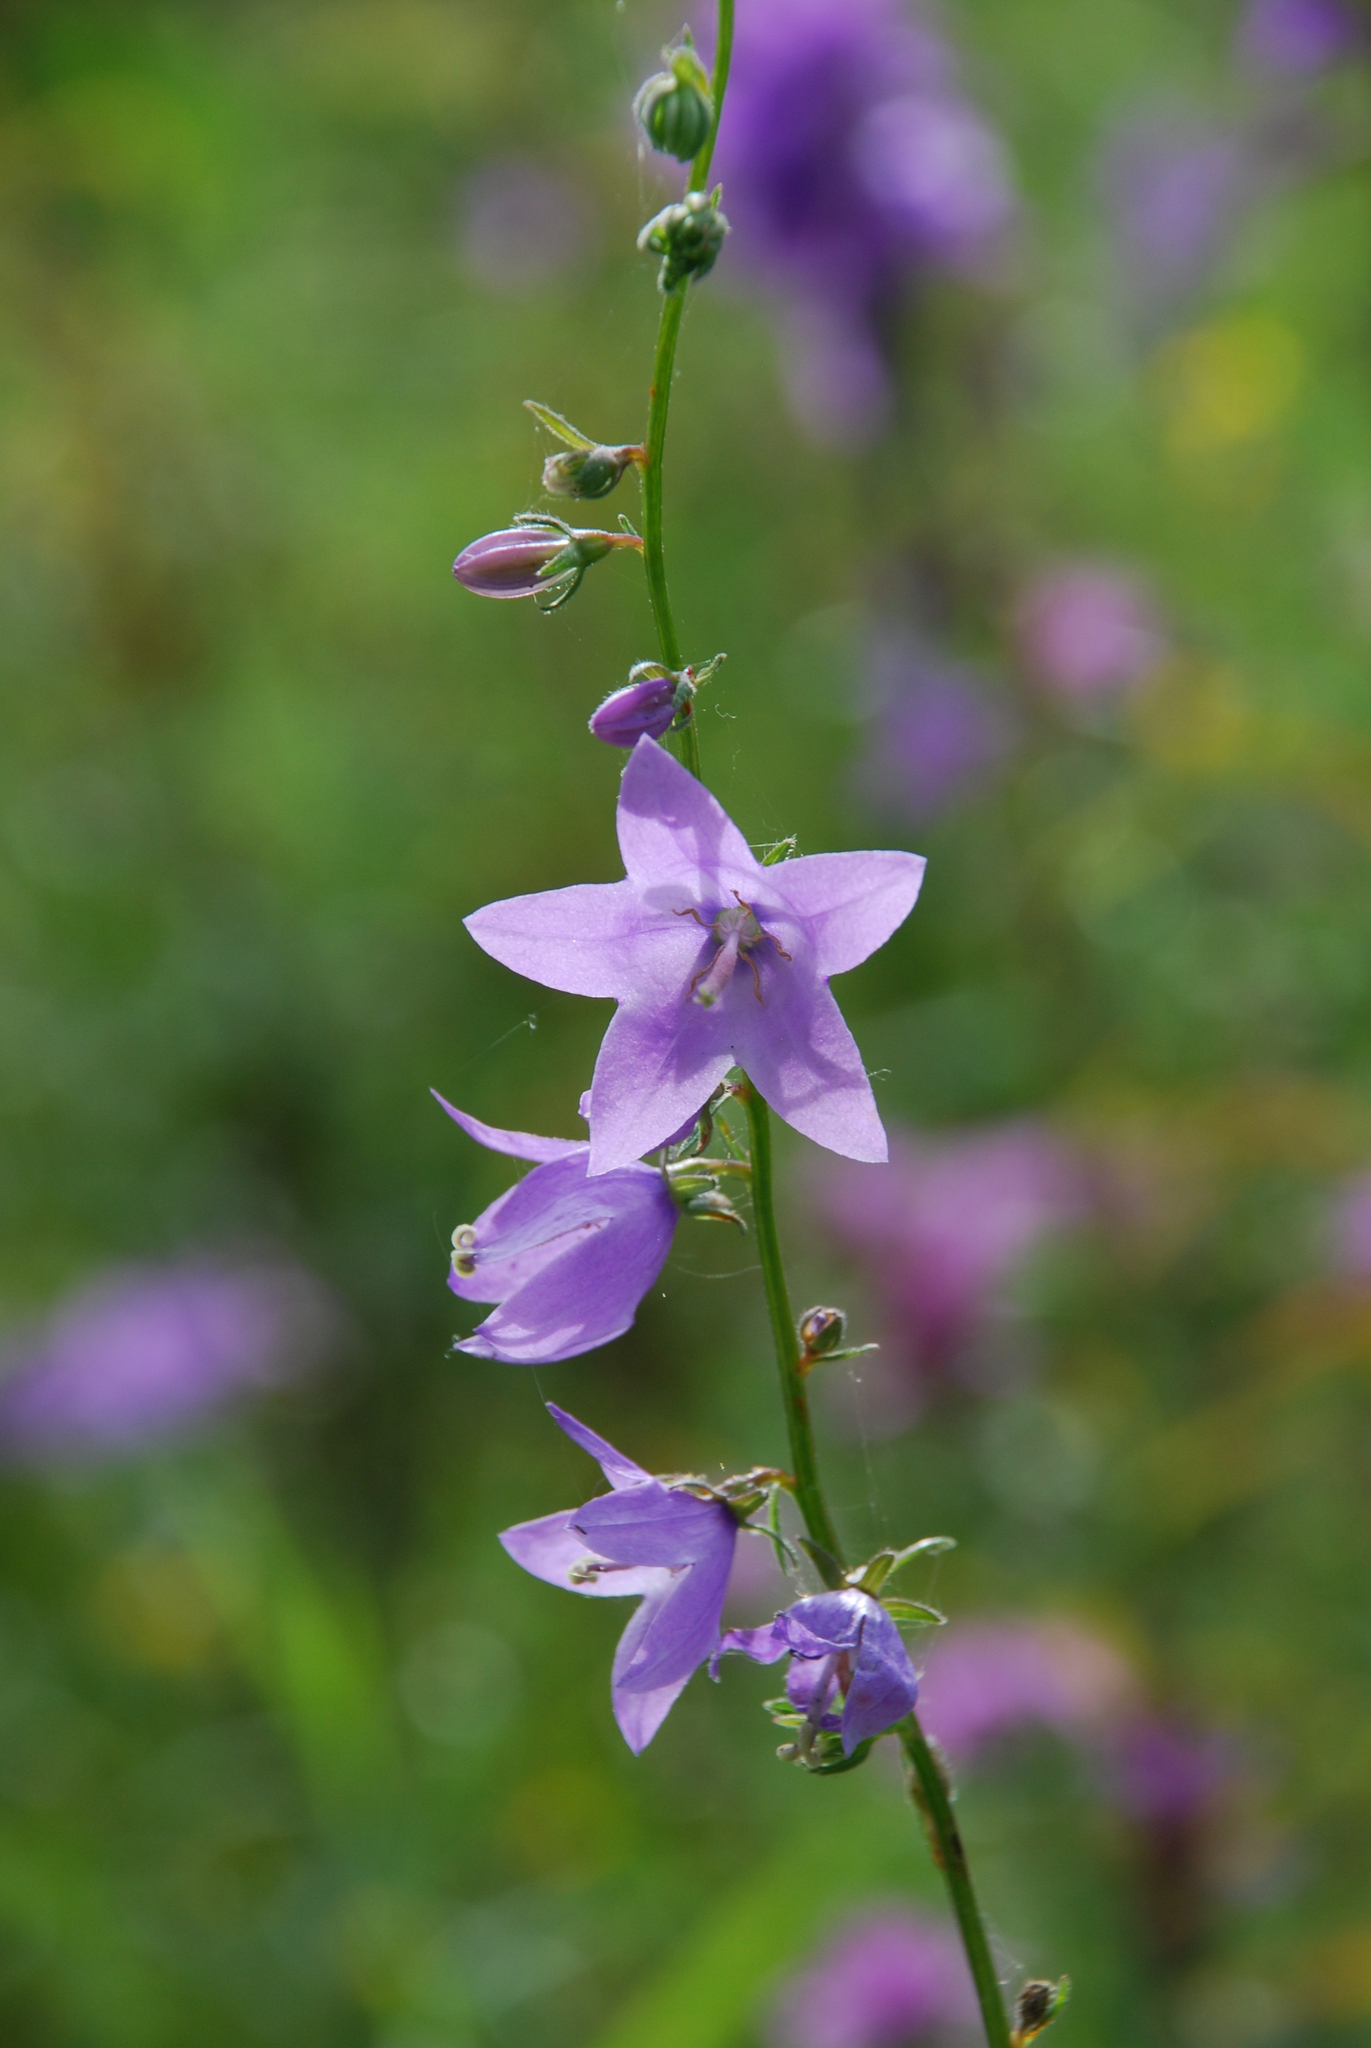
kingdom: Plantae
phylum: Tracheophyta
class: Magnoliopsida
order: Asterales
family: Campanulaceae
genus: Campanula
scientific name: Campanula rapunculoides
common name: Creeping bellflower
